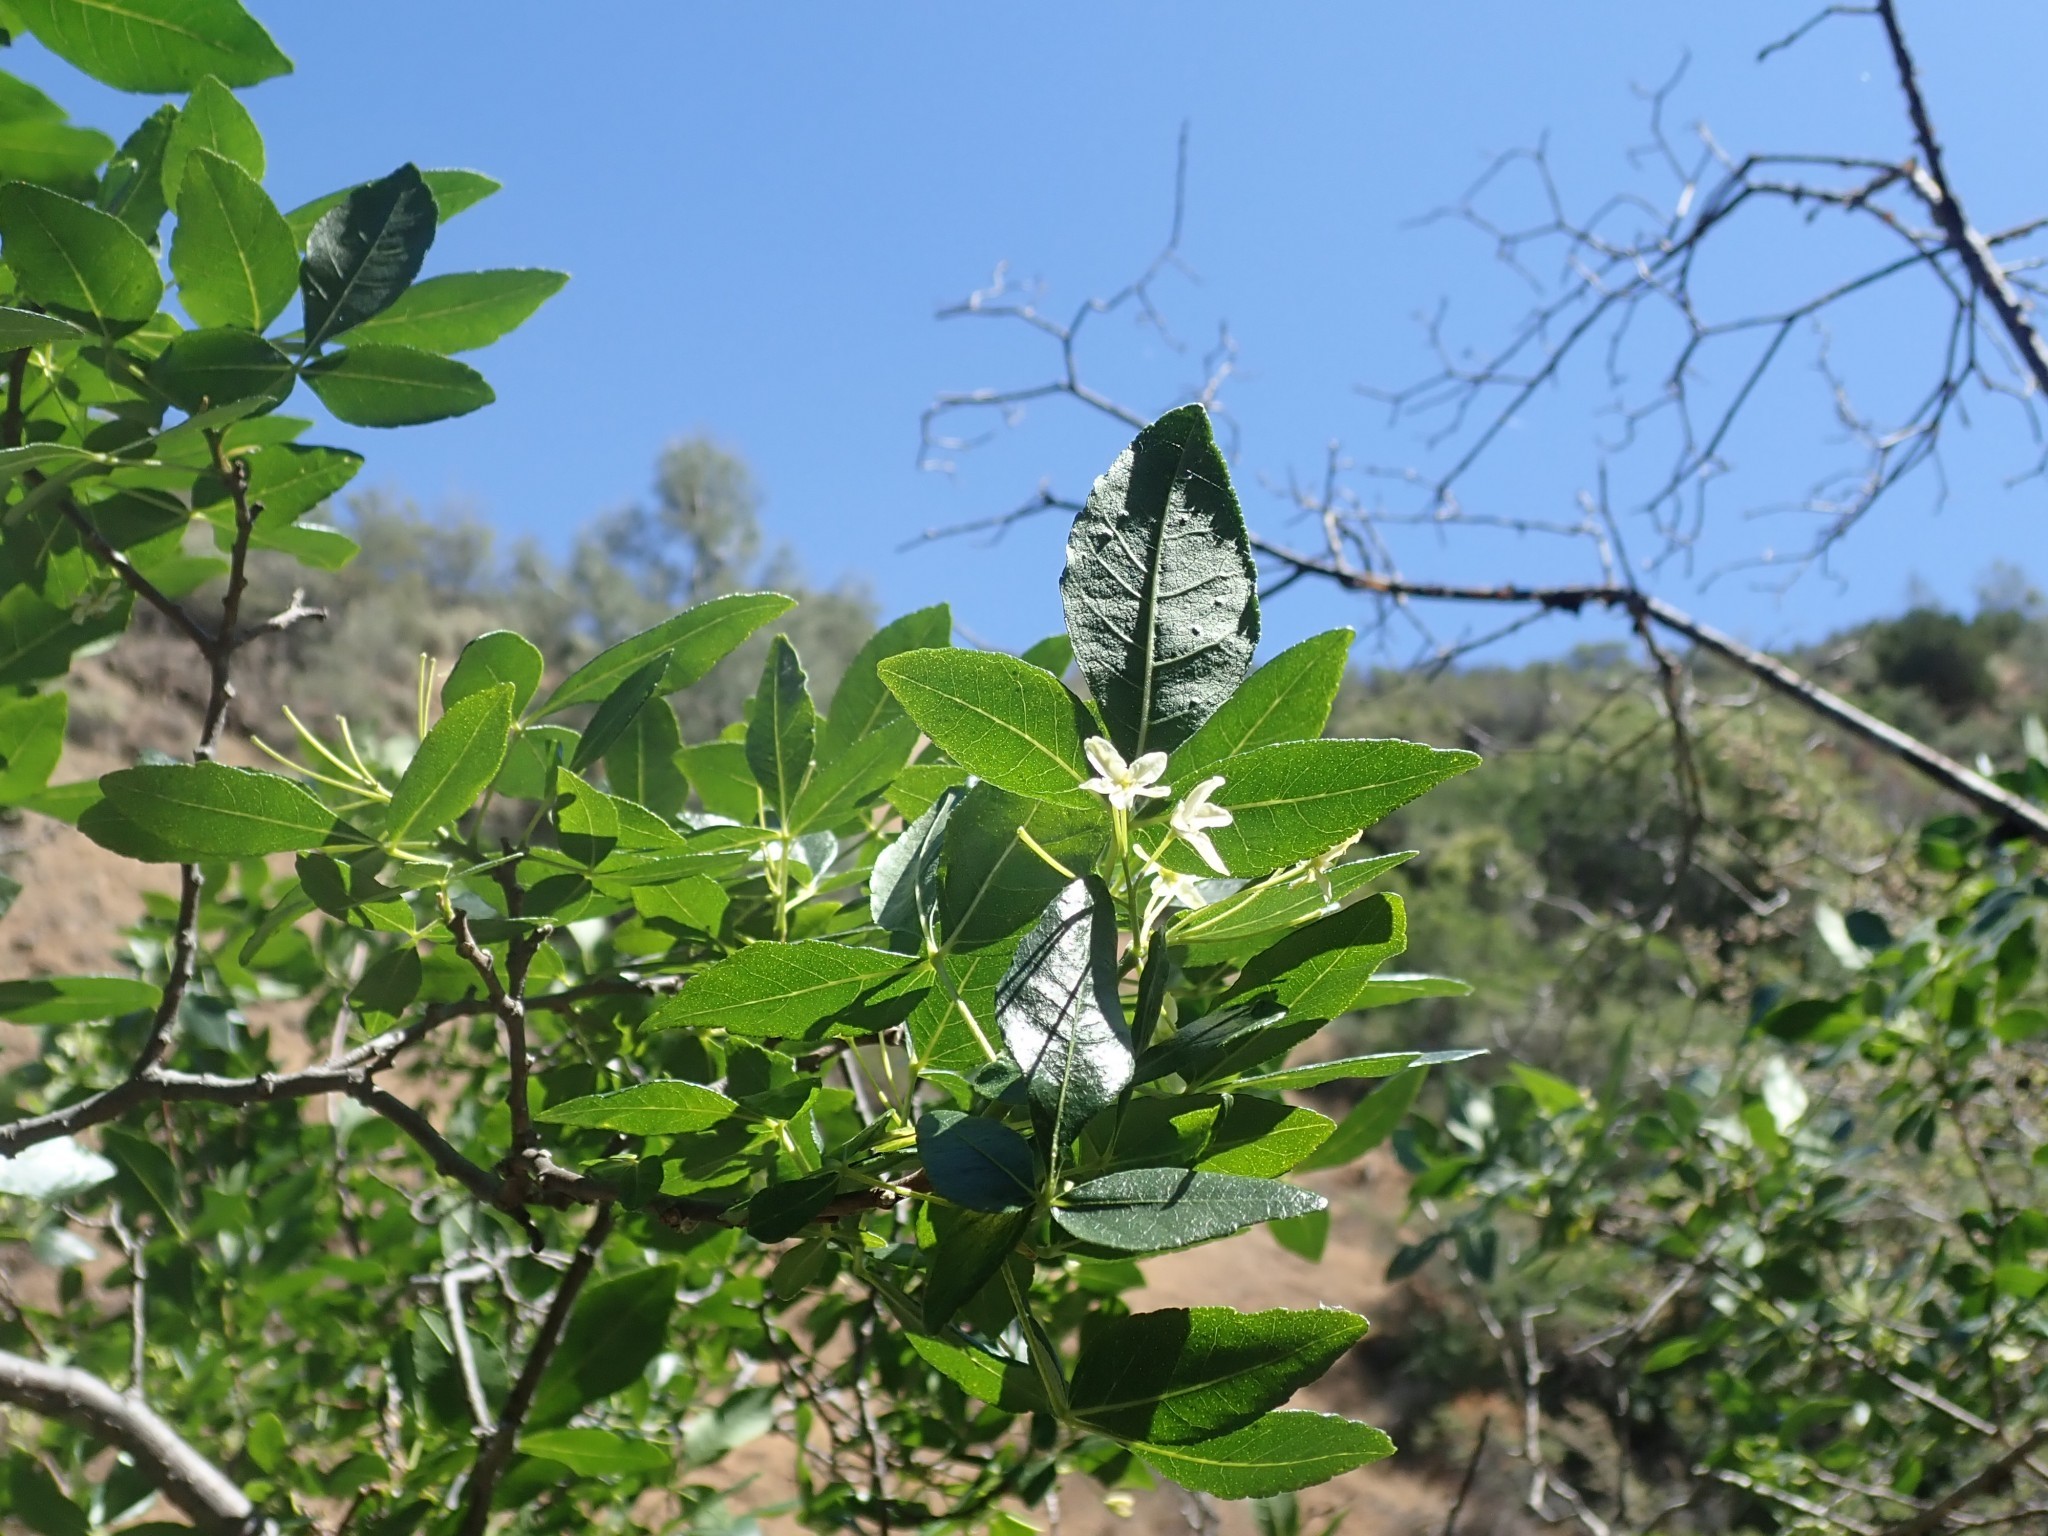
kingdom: Plantae
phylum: Tracheophyta
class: Magnoliopsida
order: Sapindales
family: Rutaceae
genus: Ptelea
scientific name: Ptelea crenulata
